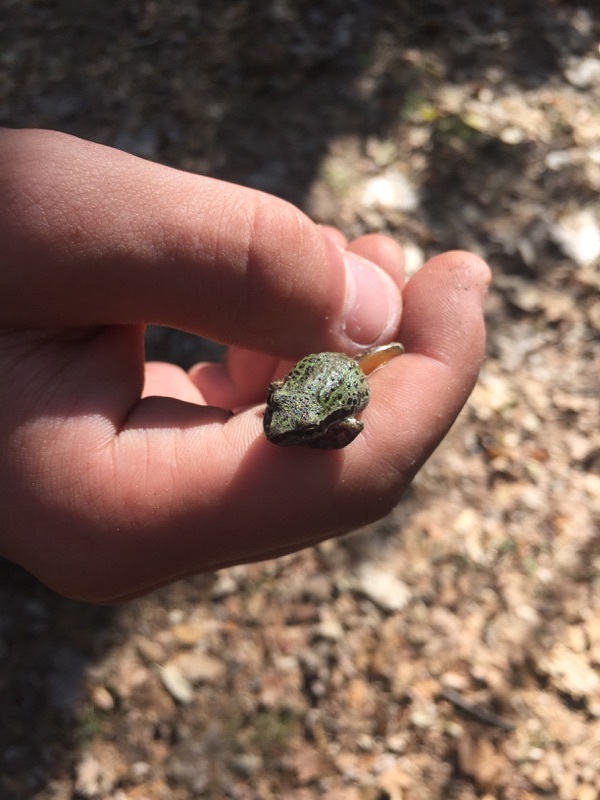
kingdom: Animalia
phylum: Chordata
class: Amphibia
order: Anura
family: Hylidae
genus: Pseudacris
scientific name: Pseudacris regilla
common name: Pacific chorus frog
